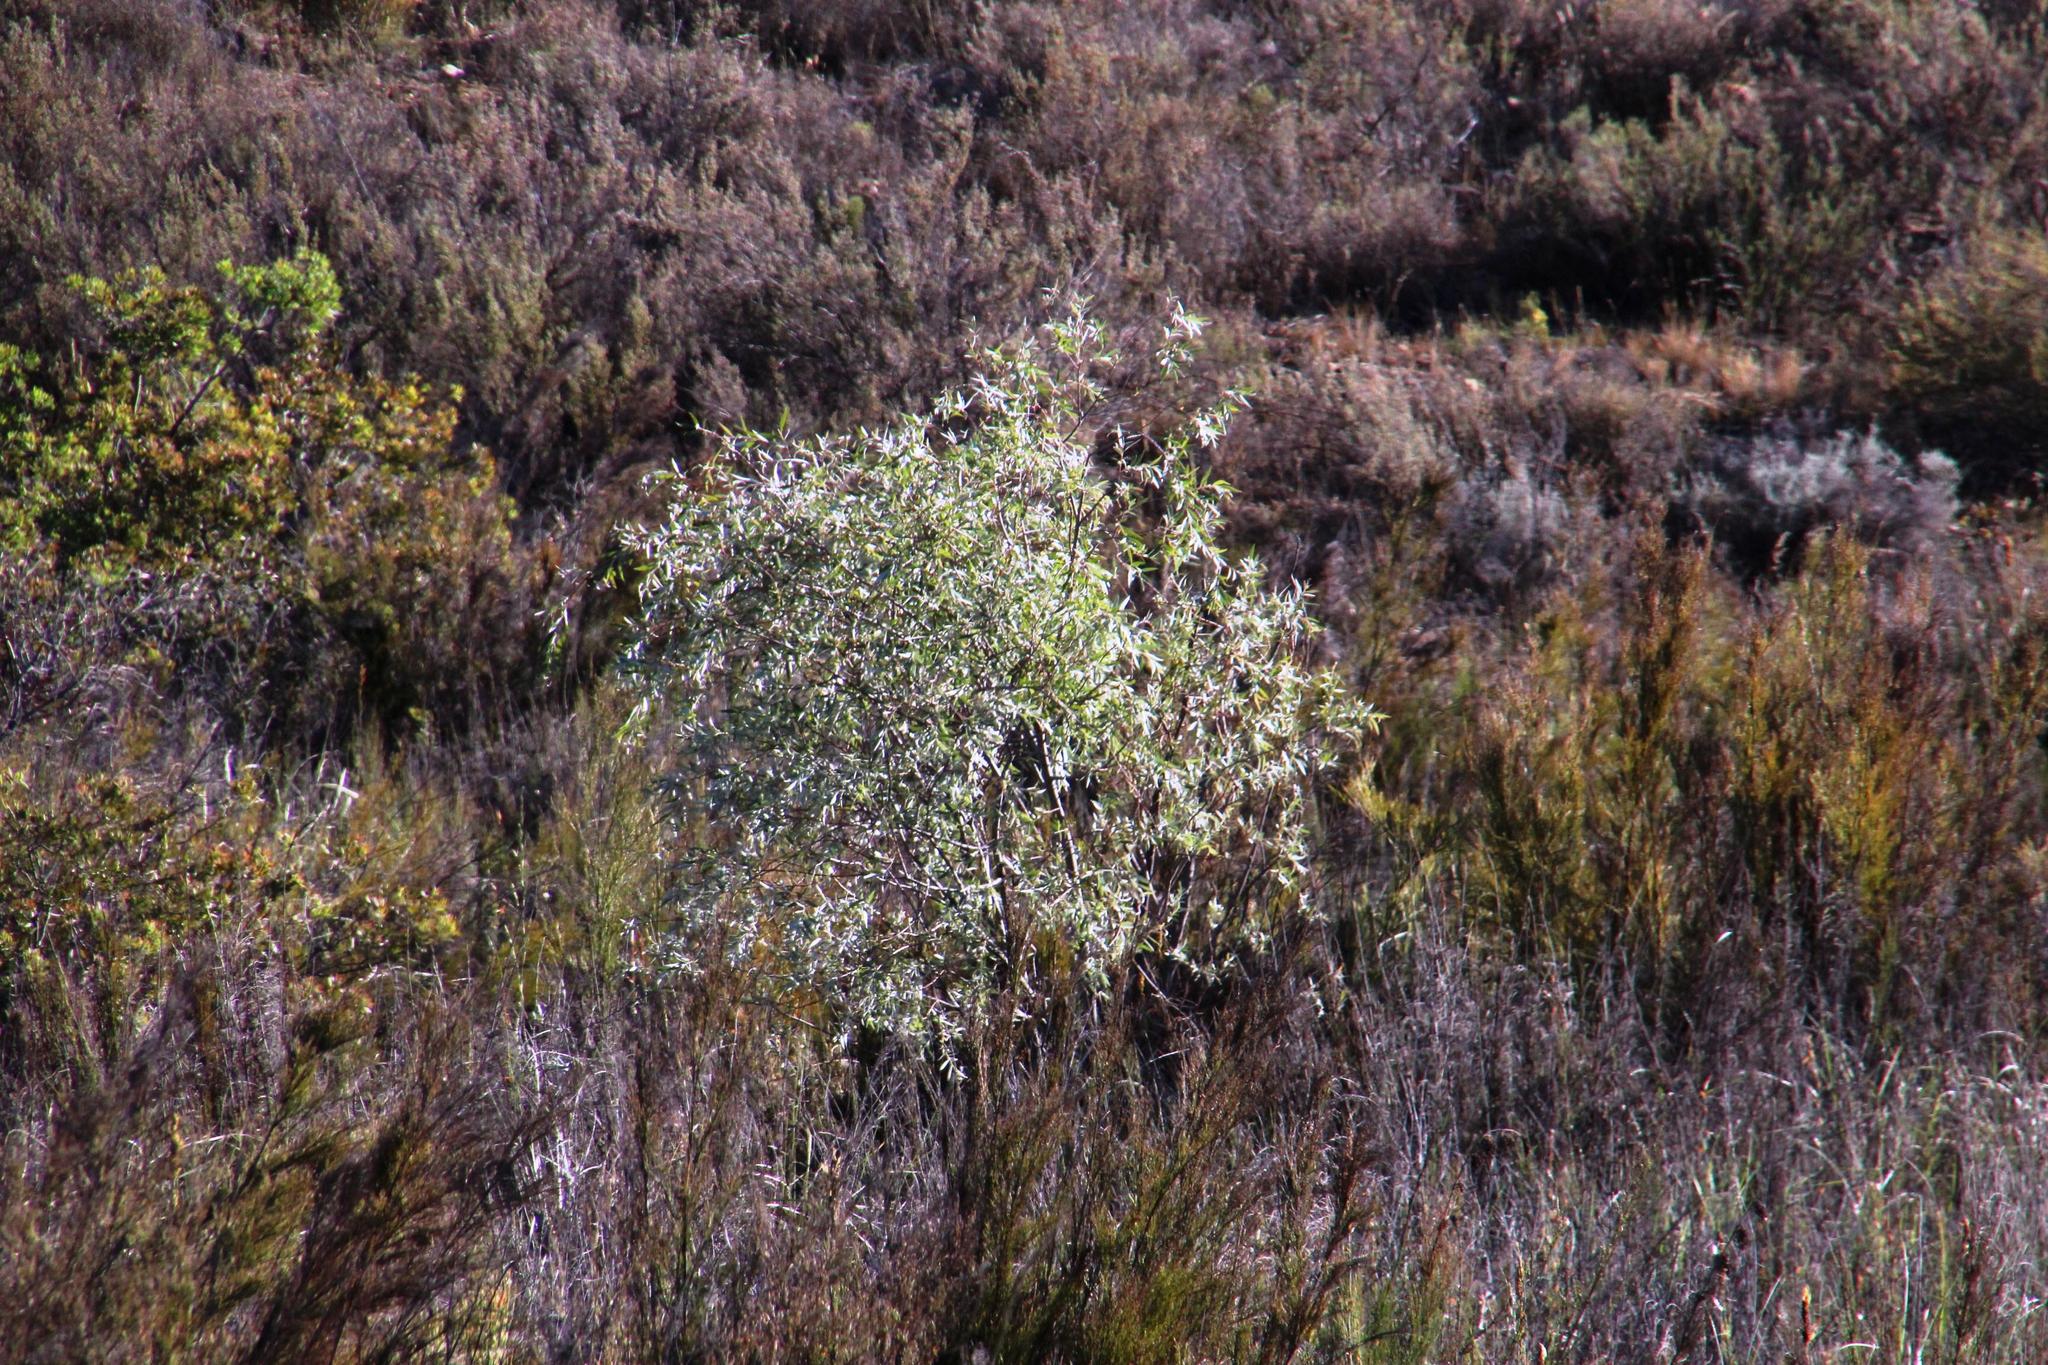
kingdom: Plantae
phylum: Tracheophyta
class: Magnoliopsida
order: Malpighiales
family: Salicaceae
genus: Salix
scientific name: Salix mucronata
